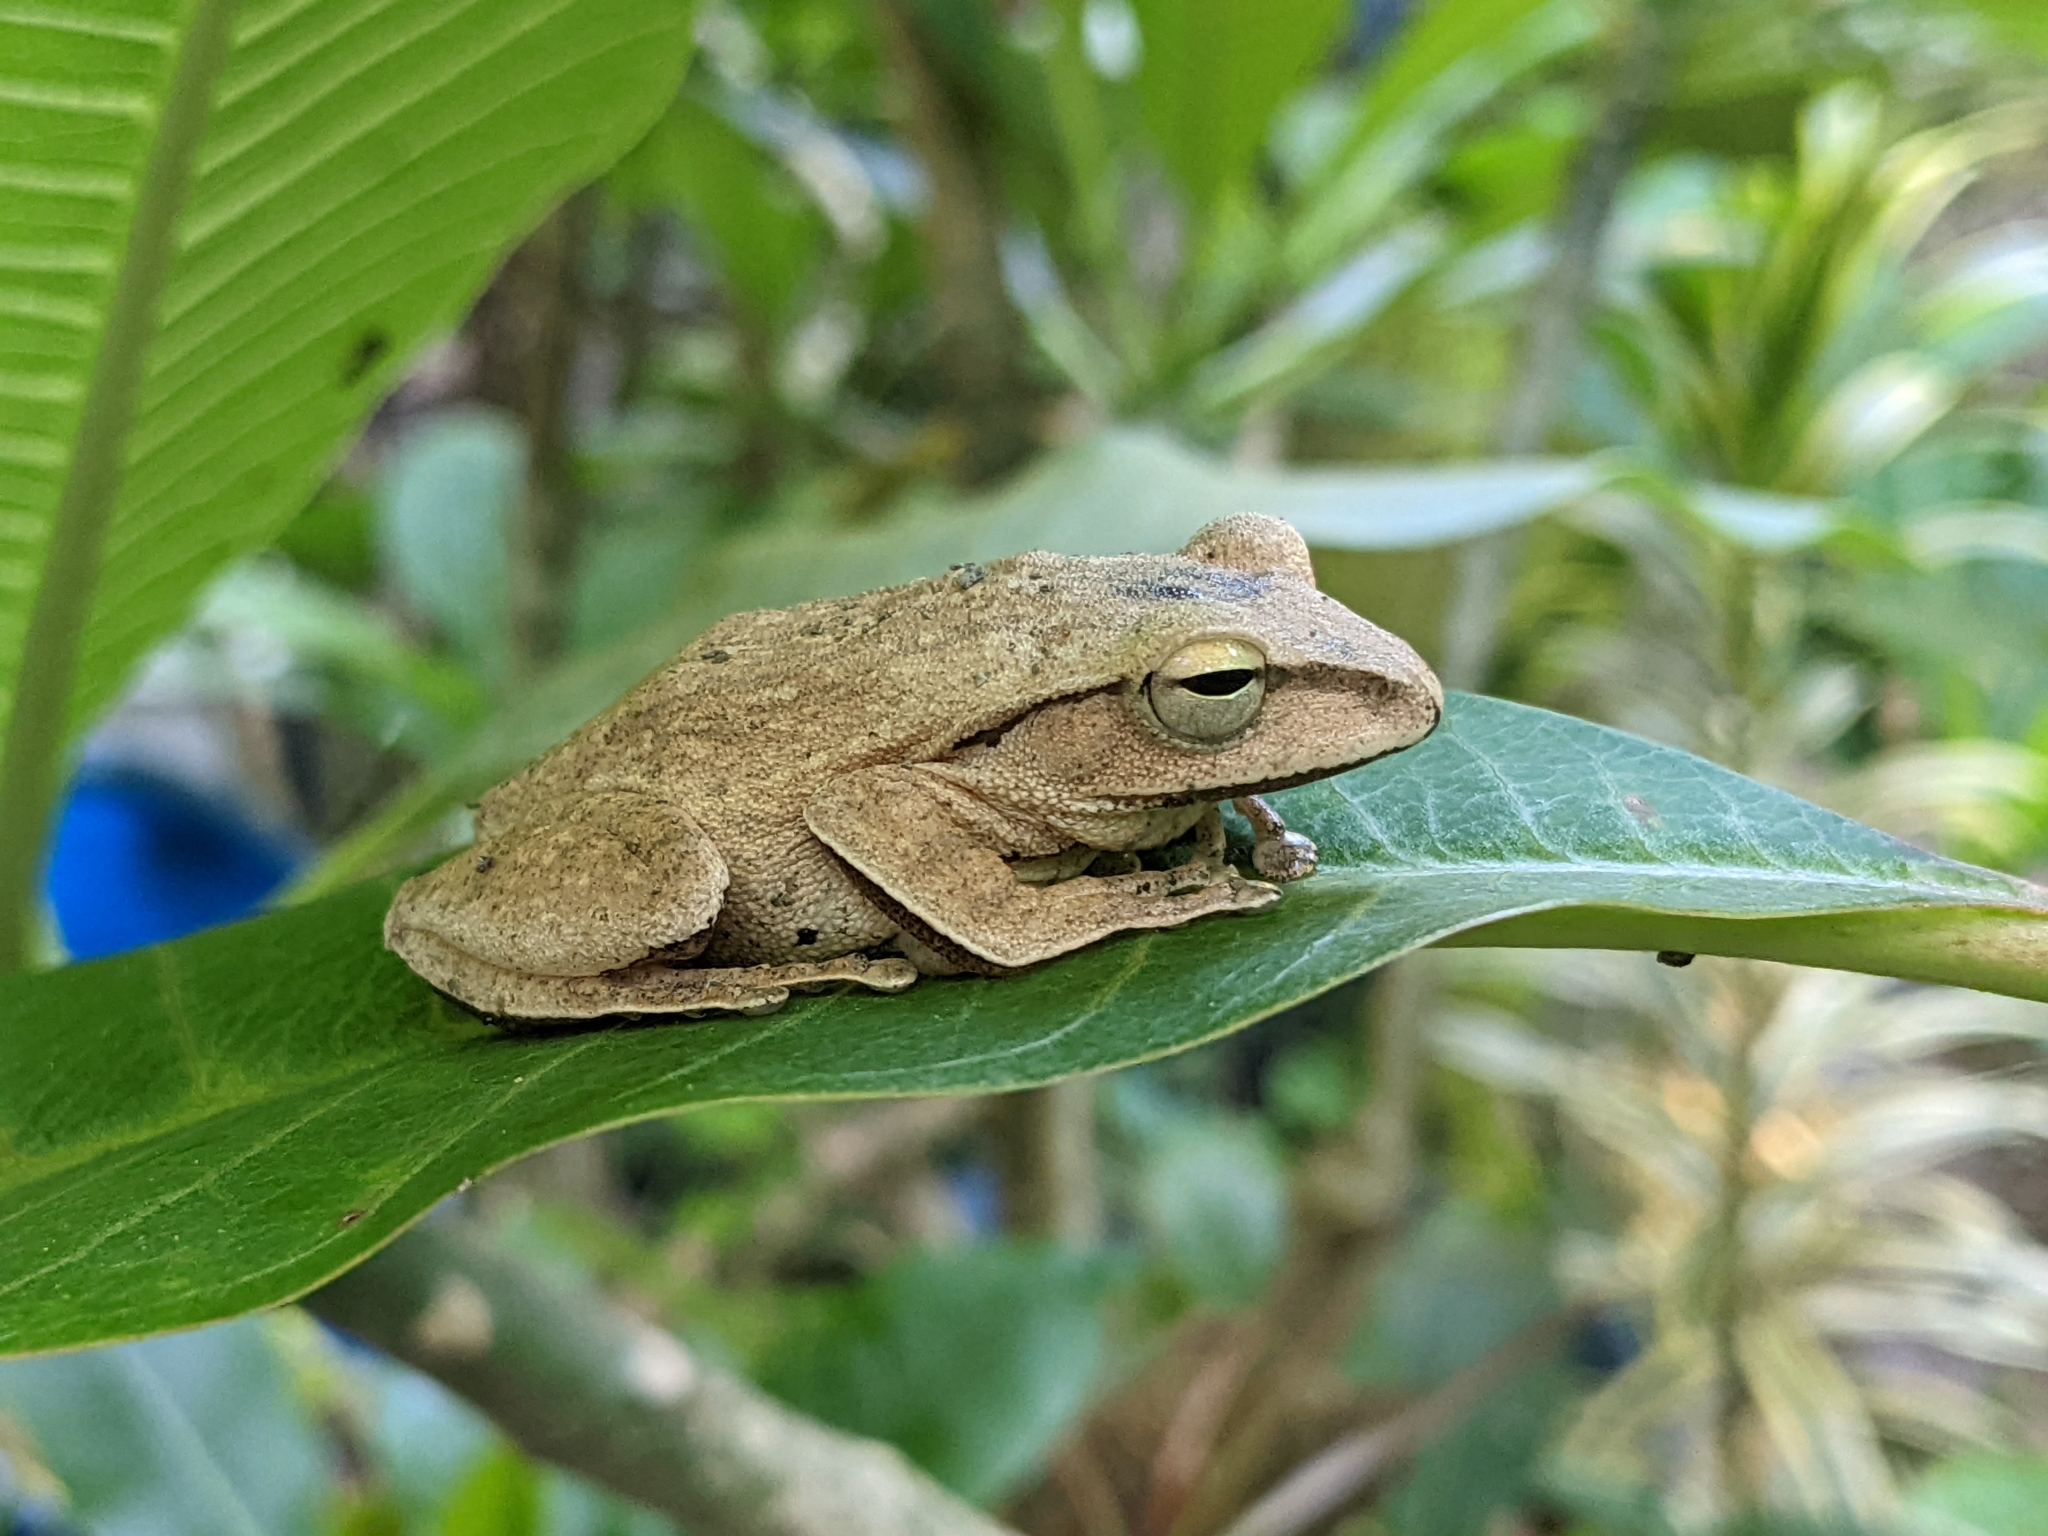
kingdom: Animalia
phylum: Chordata
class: Amphibia
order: Anura
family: Rhacophoridae
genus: Polypedates
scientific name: Polypedates braueri
